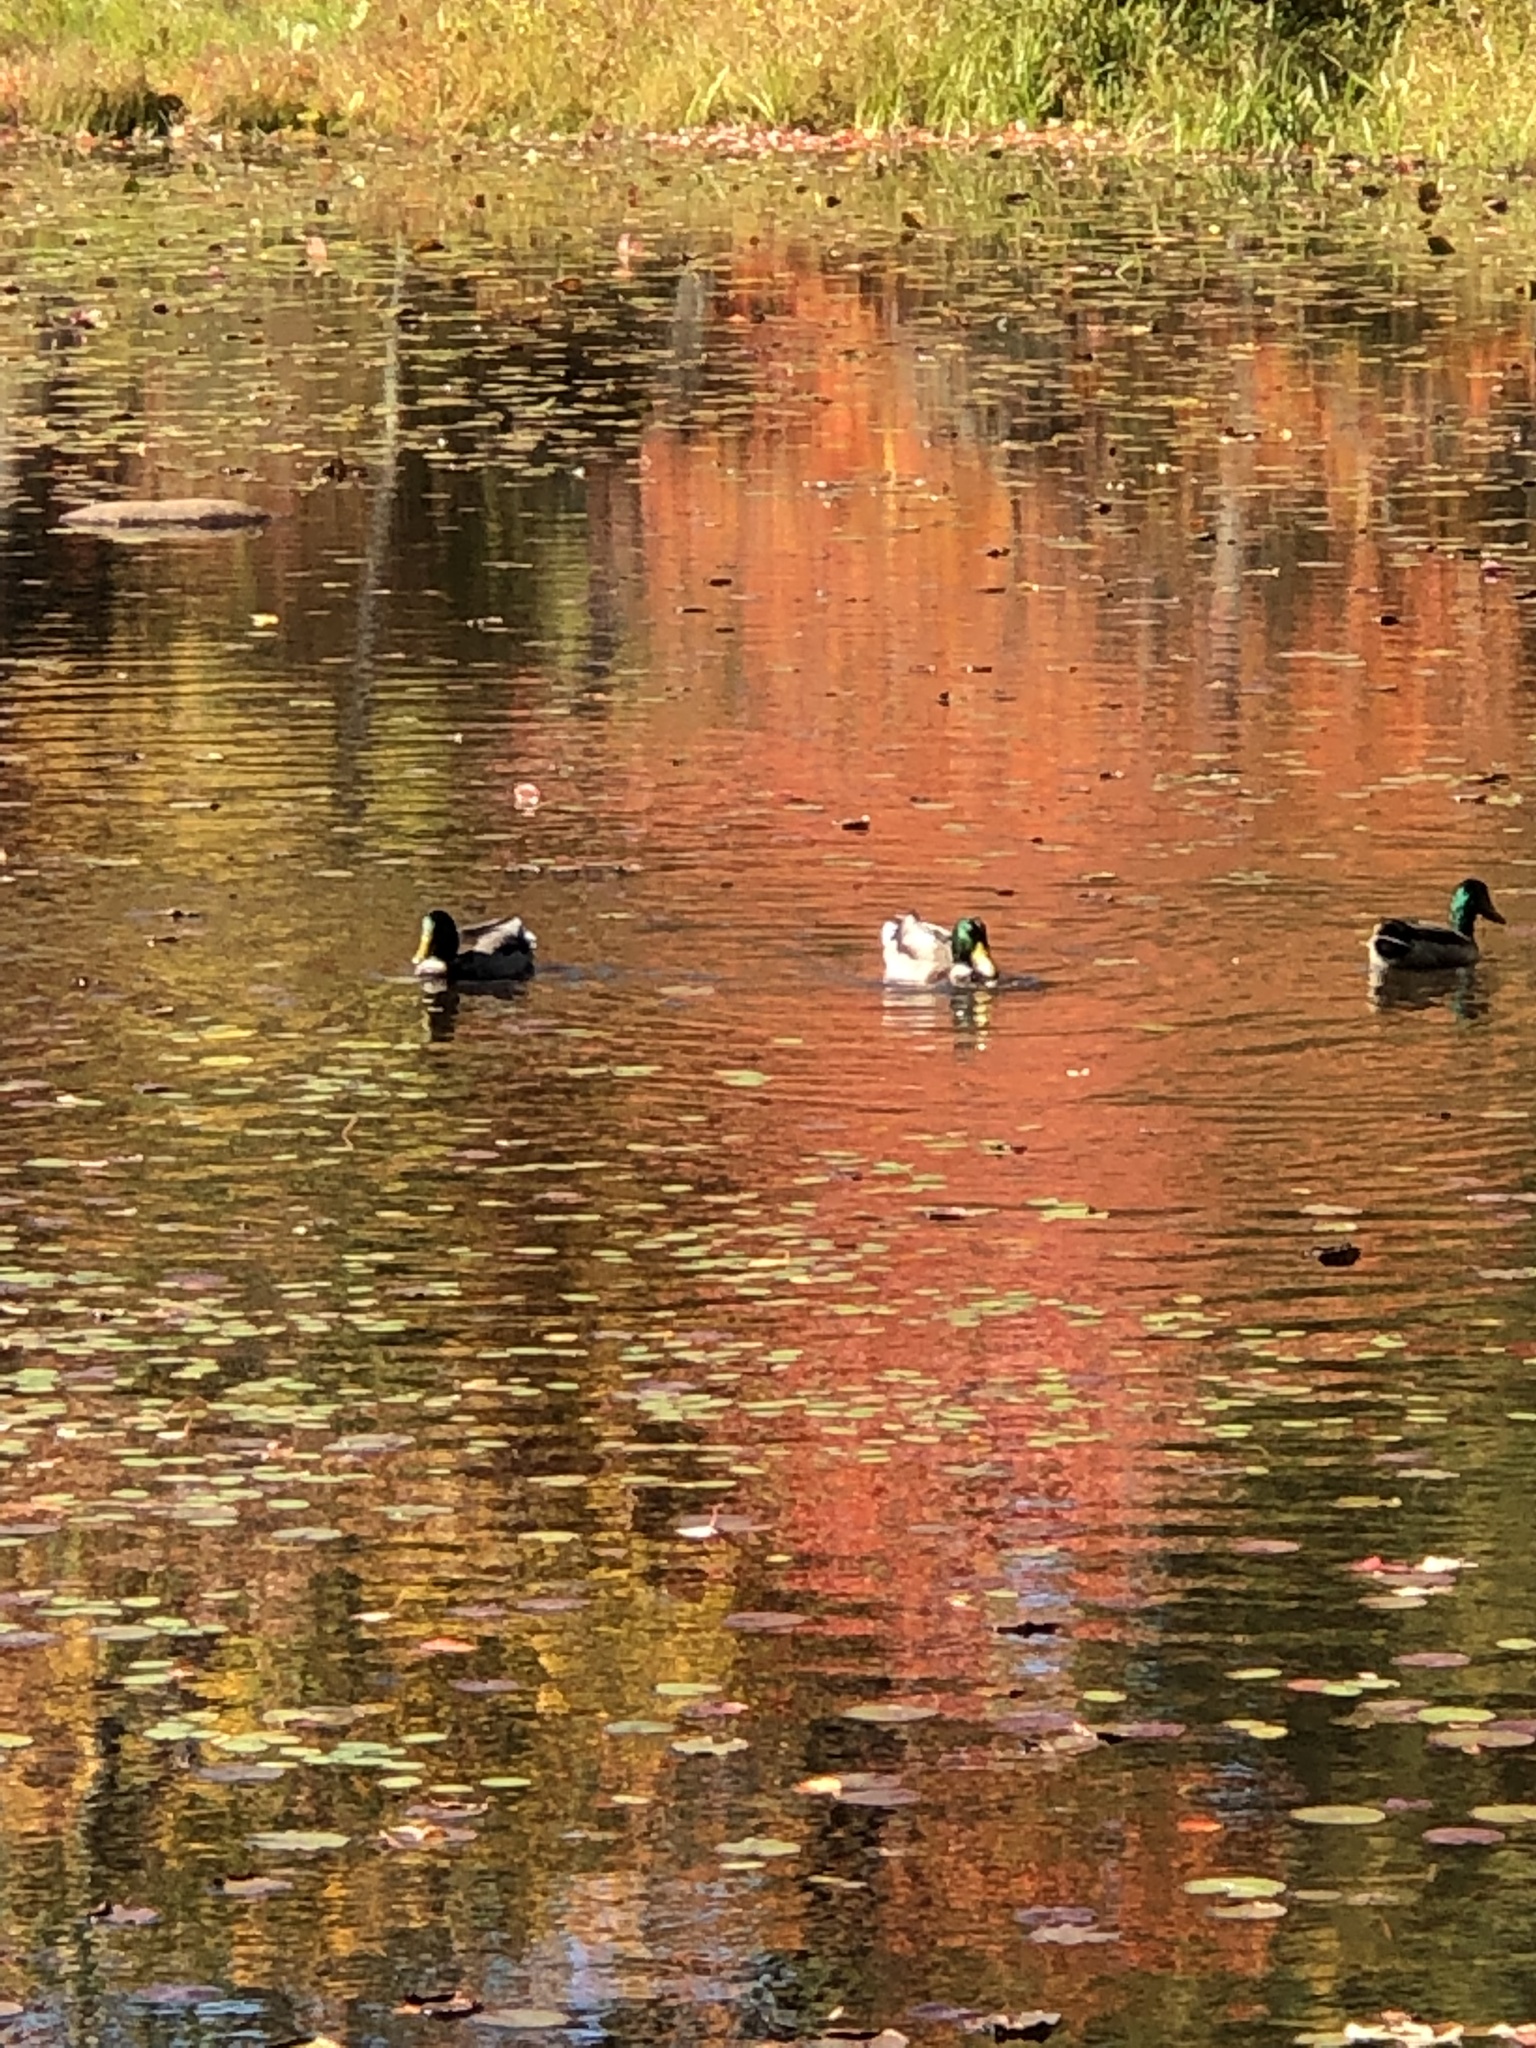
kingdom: Animalia
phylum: Chordata
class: Aves
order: Anseriformes
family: Anatidae
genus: Anas
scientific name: Anas platyrhynchos
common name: Mallard
